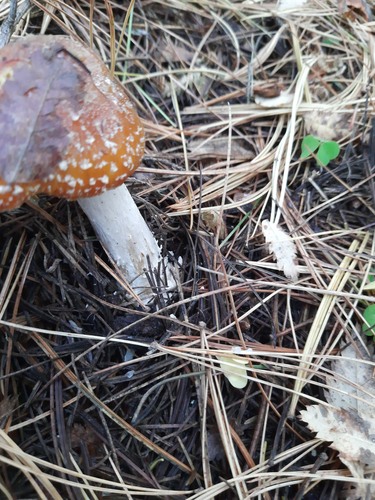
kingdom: Fungi
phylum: Basidiomycota
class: Agaricomycetes
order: Agaricales
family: Amanitaceae
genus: Amanita
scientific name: Amanita muscaria
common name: Fly agaric
